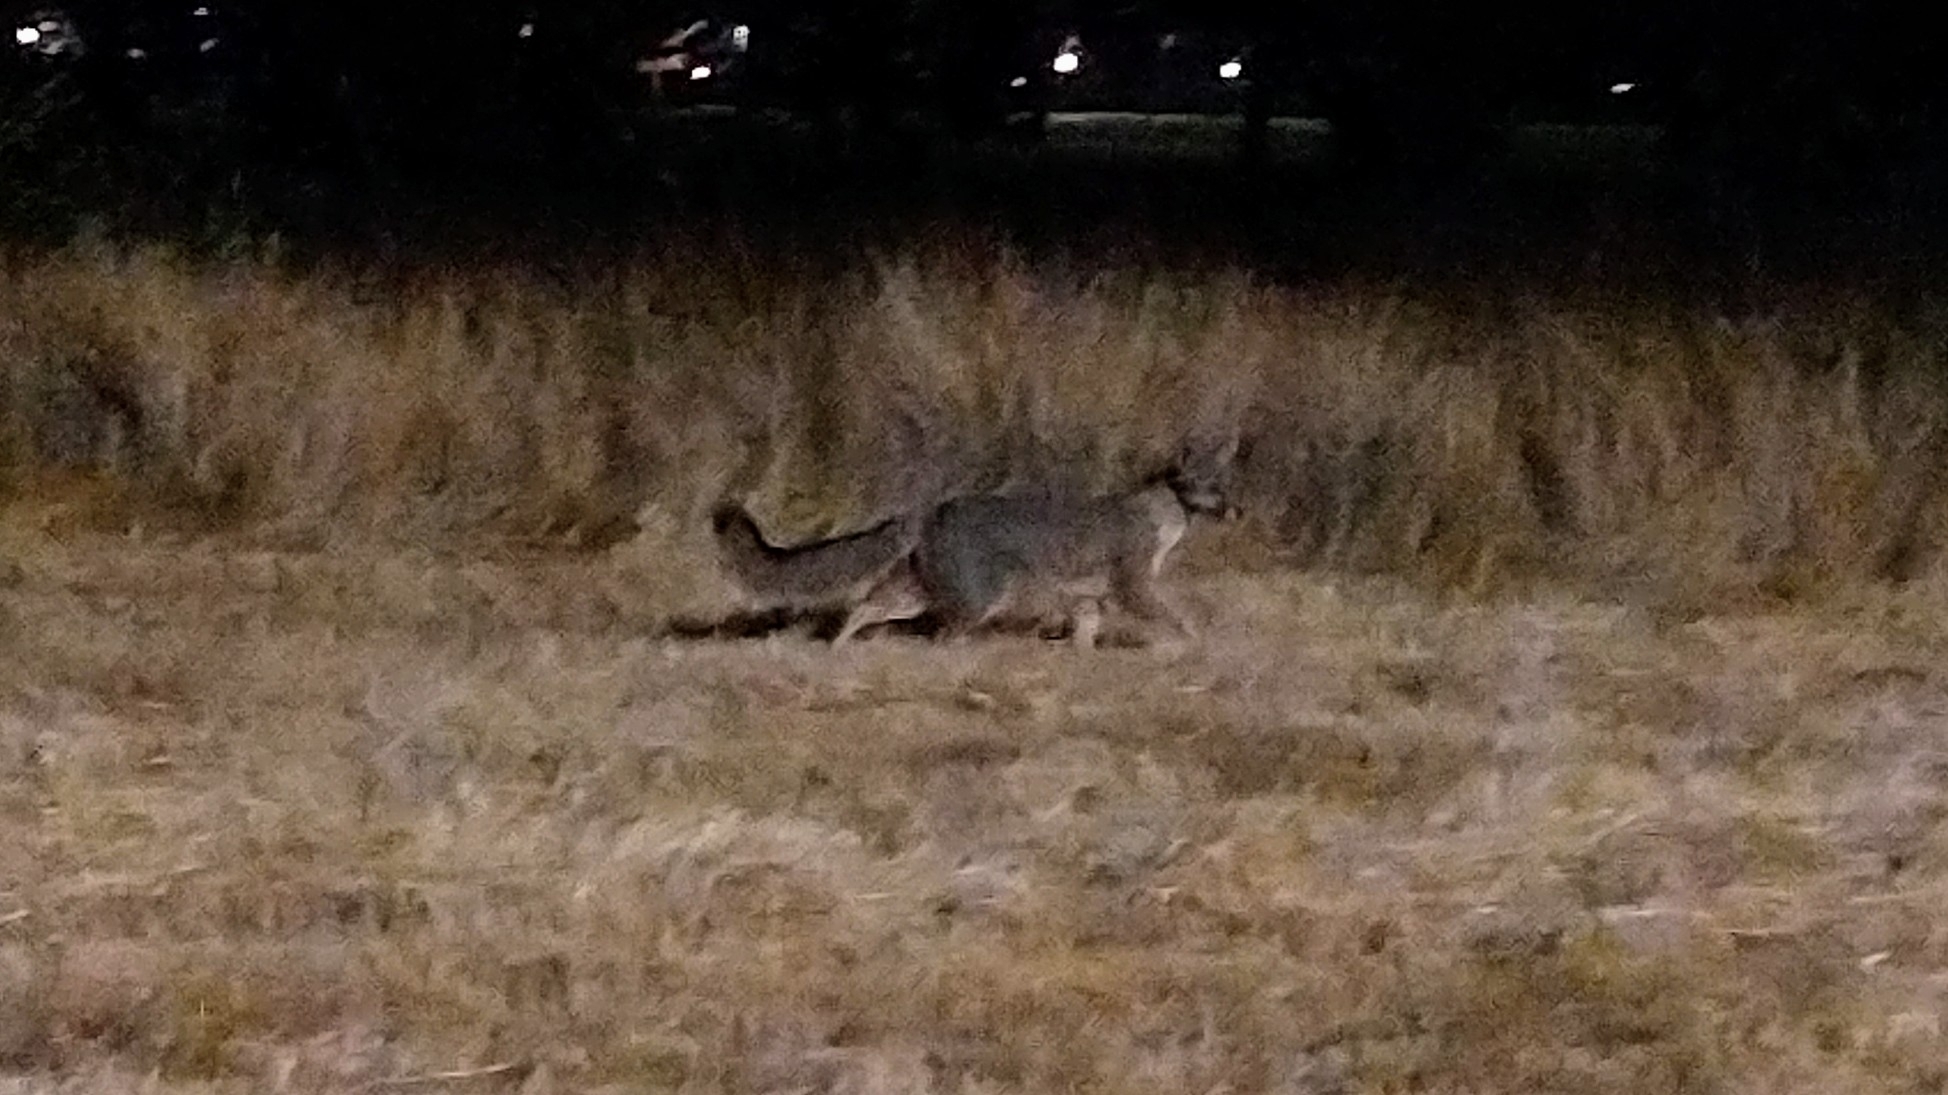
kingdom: Animalia
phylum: Chordata
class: Mammalia
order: Carnivora
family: Canidae
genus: Urocyon
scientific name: Urocyon cinereoargenteus
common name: Gray fox
